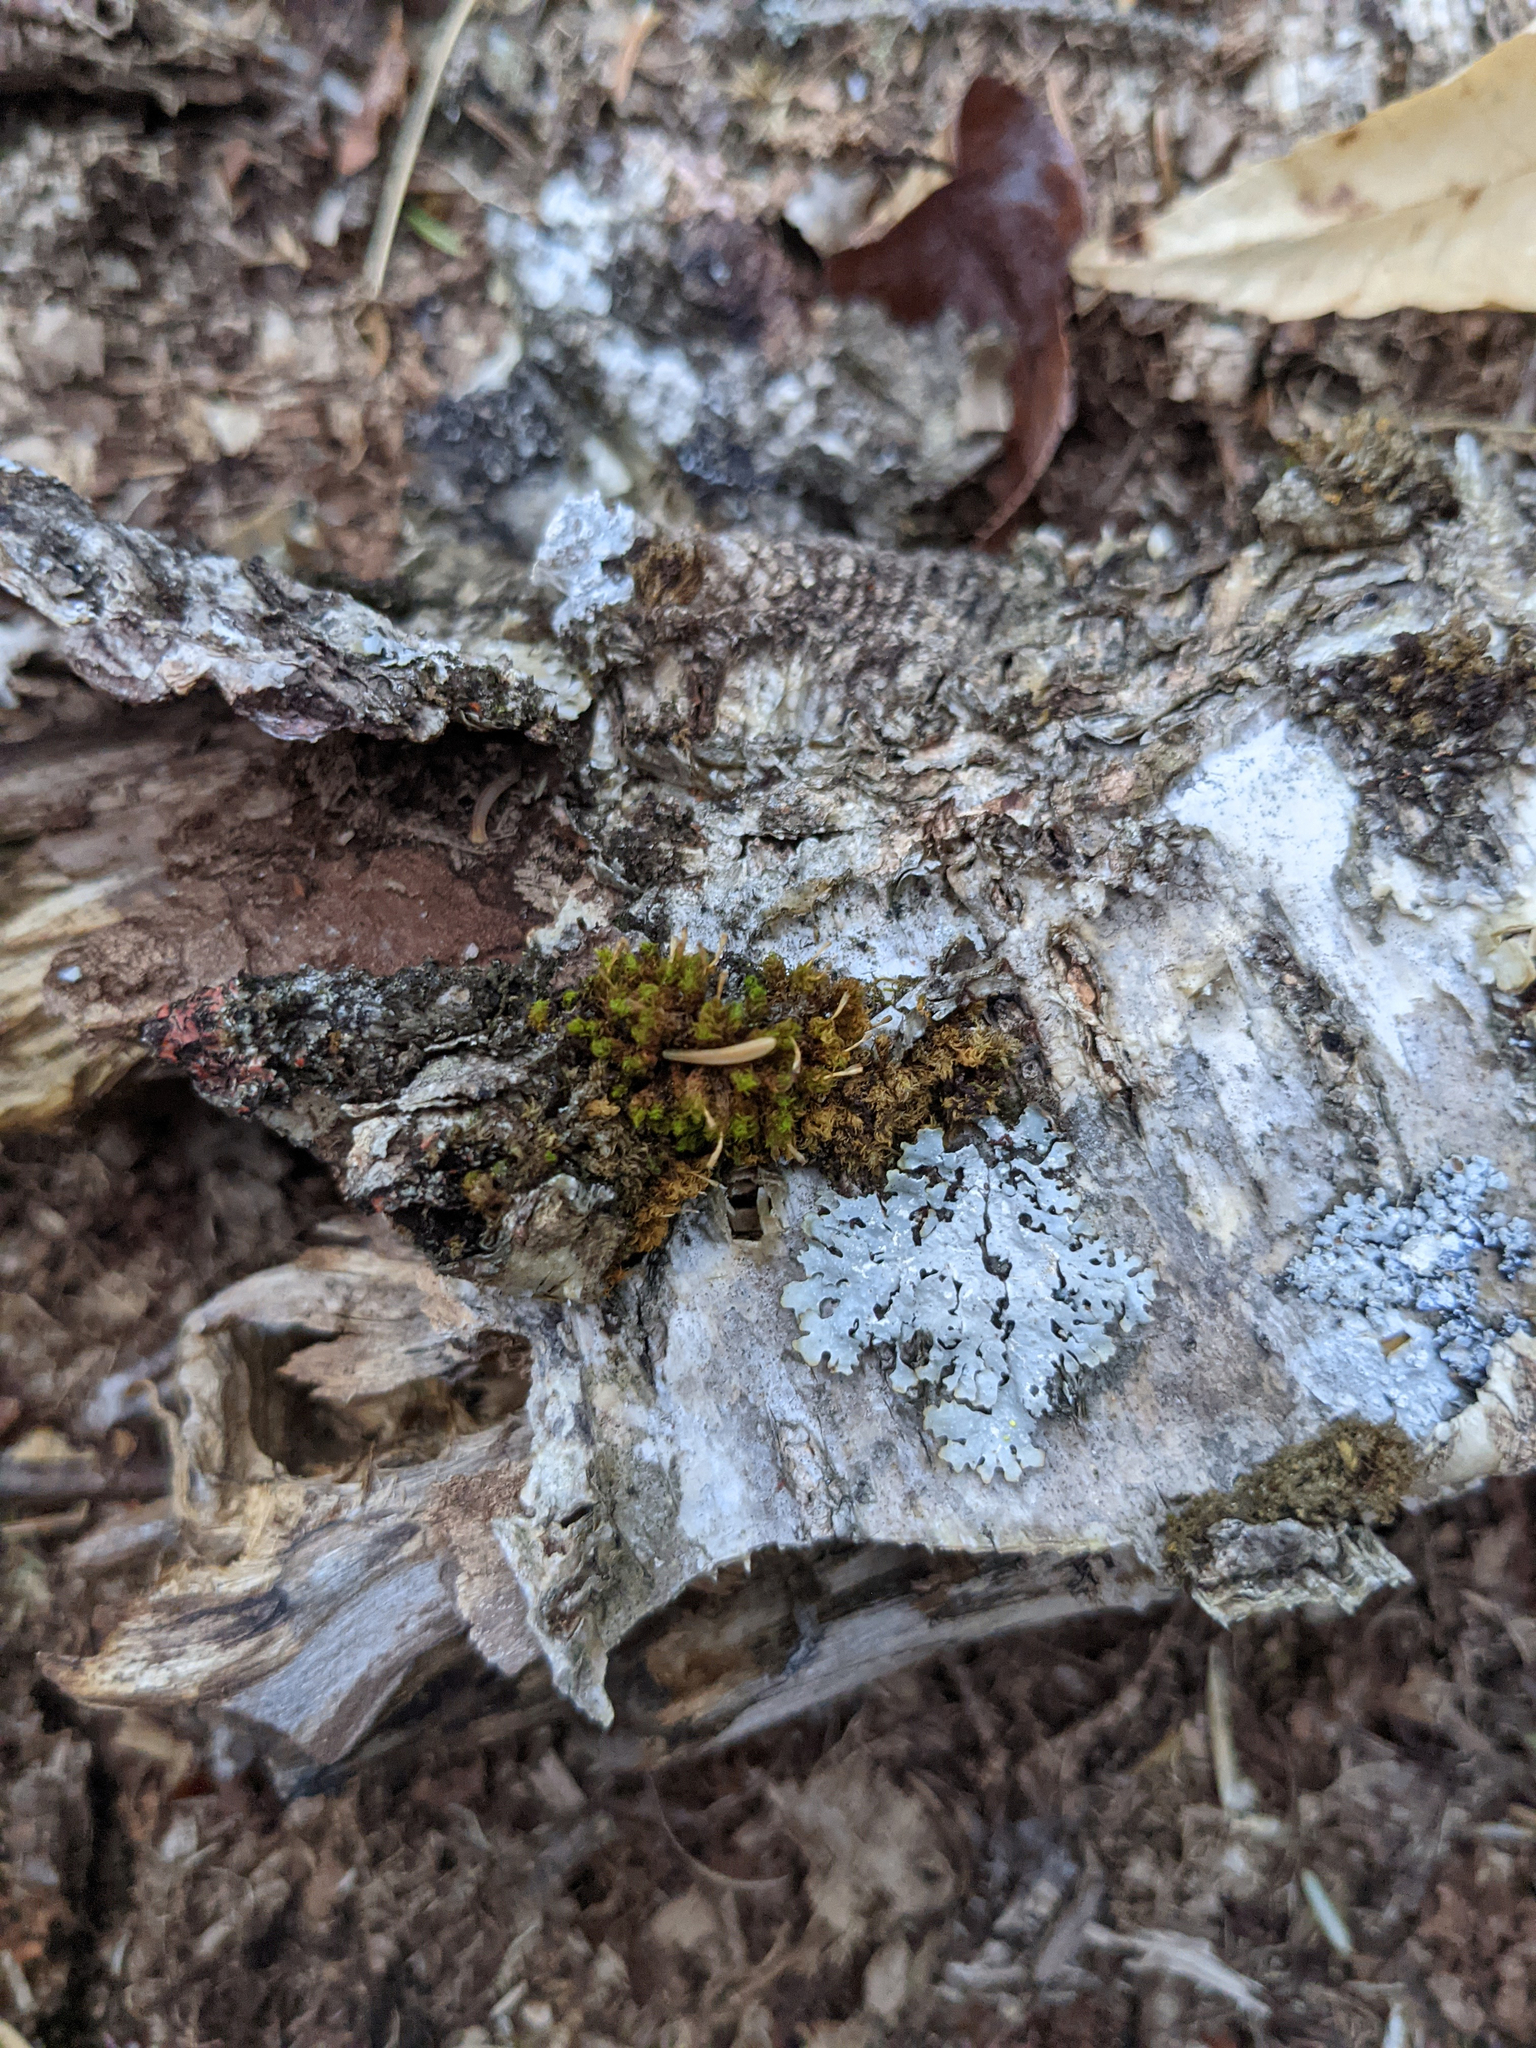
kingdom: Plantae
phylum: Bryophyta
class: Bryopsida
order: Orthotrichales
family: Orthotrichaceae
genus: Ulota
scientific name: Ulota crispa
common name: Crisped pincushion moss
